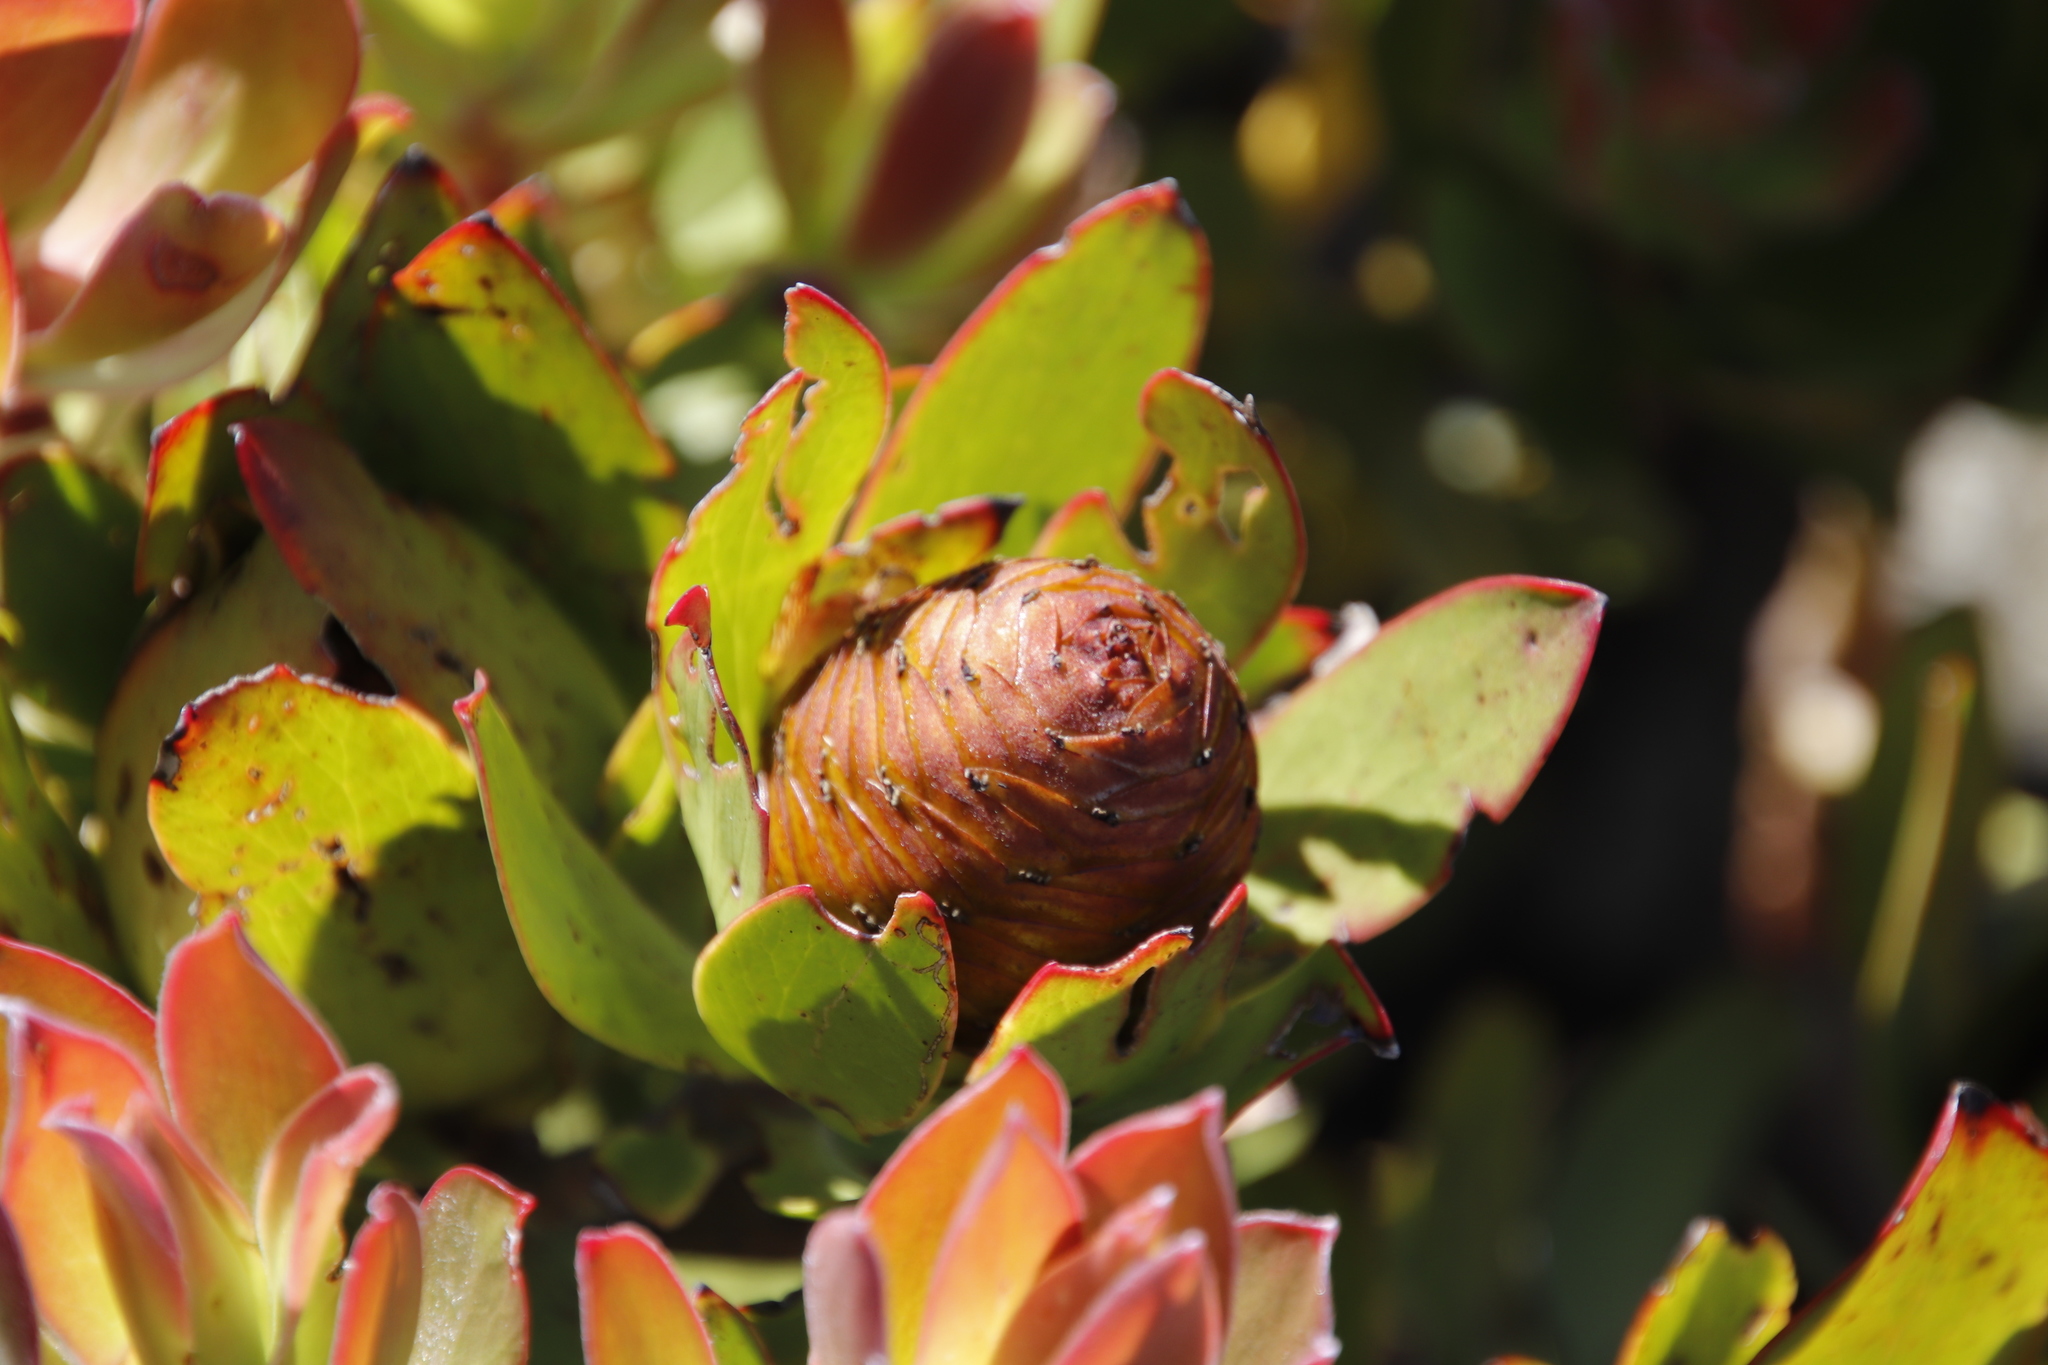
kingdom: Plantae
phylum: Tracheophyta
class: Magnoliopsida
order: Proteales
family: Proteaceae
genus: Leucadendron
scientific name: Leucadendron gandogeri
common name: Broad-leaf conebush
